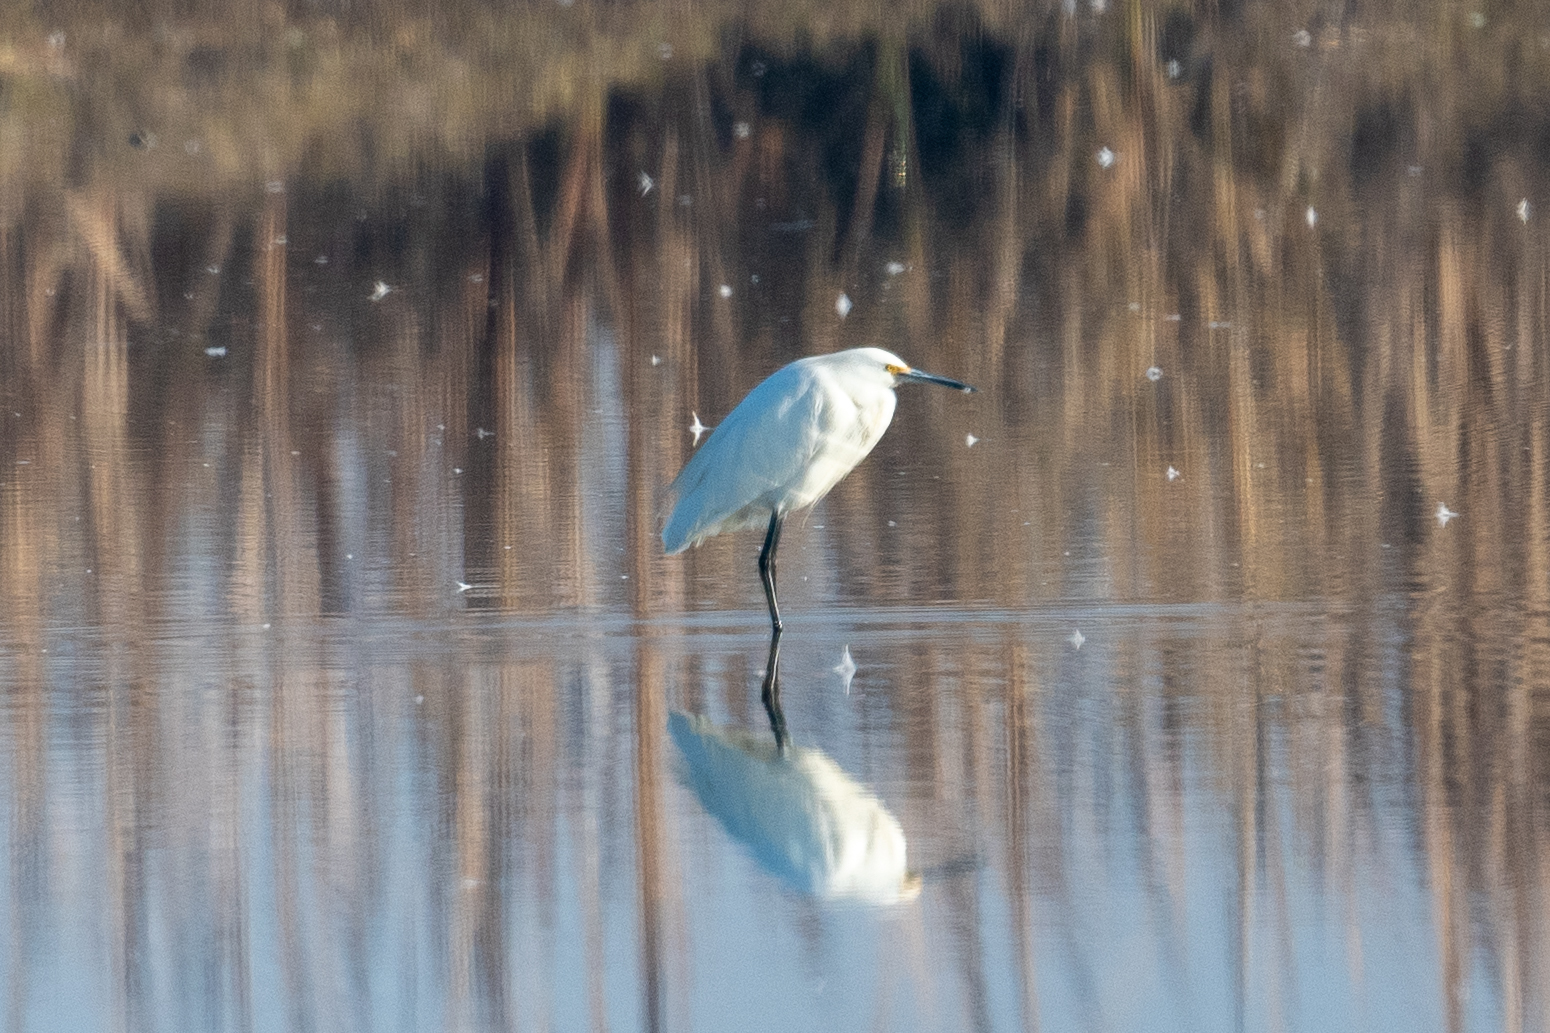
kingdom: Animalia
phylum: Chordata
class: Aves
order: Pelecaniformes
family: Ardeidae
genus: Egretta
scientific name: Egretta thula
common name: Snowy egret
